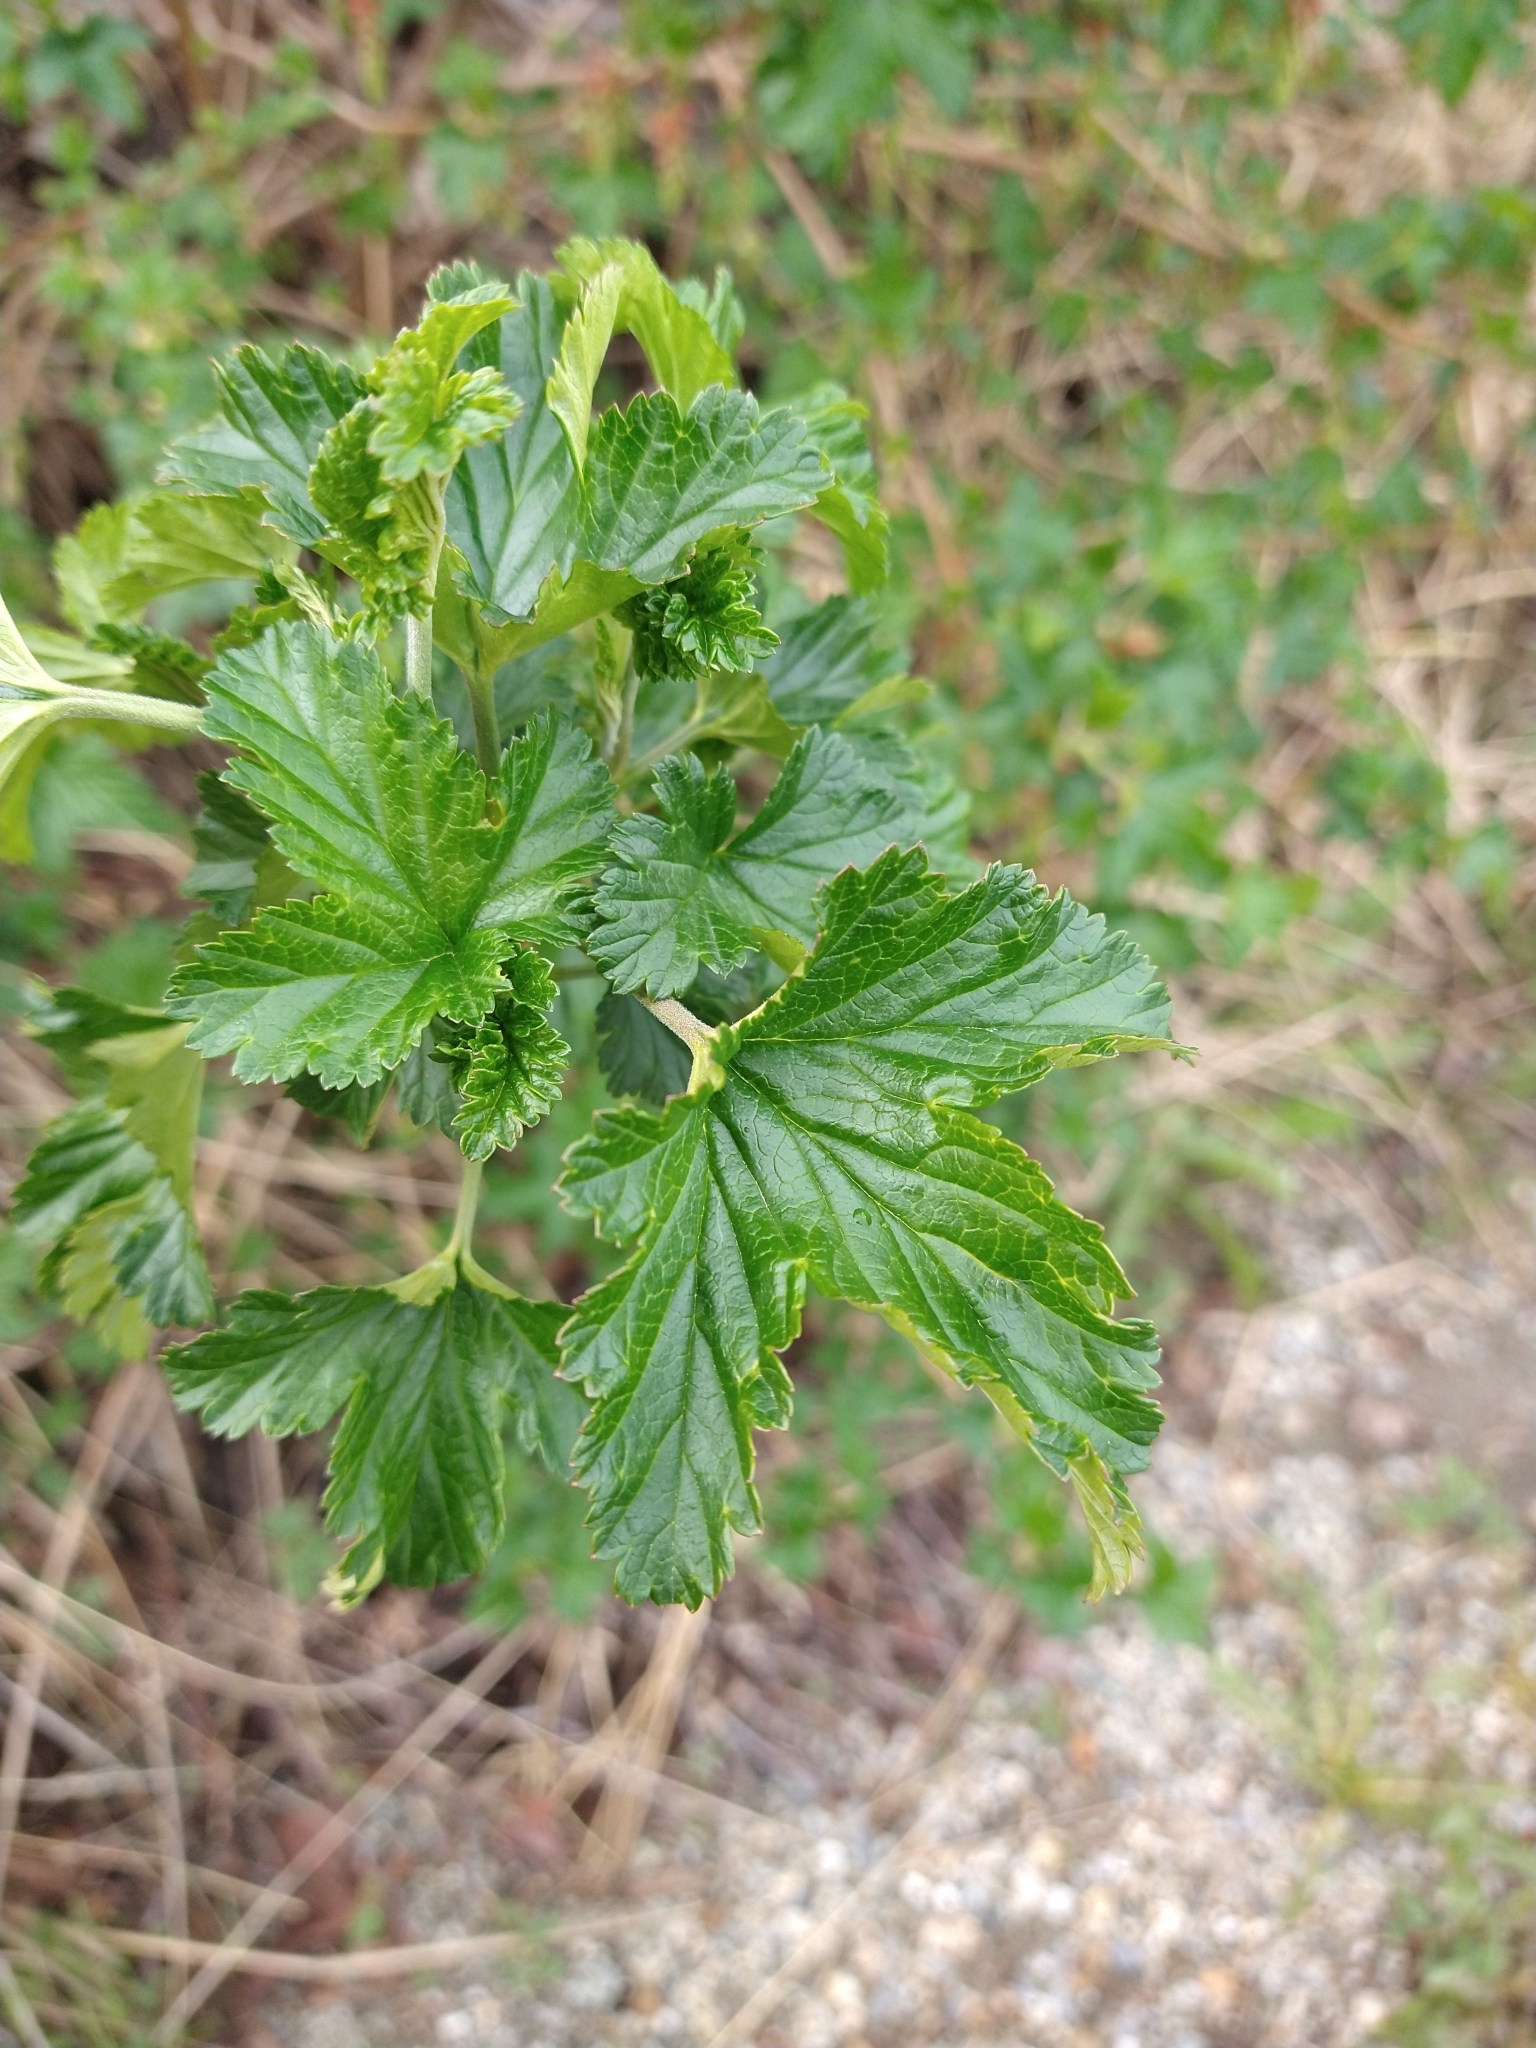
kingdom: Plantae
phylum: Tracheophyta
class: Magnoliopsida
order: Saxifragales
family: Grossulariaceae
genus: Ribes
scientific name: Ribes magellanicum
